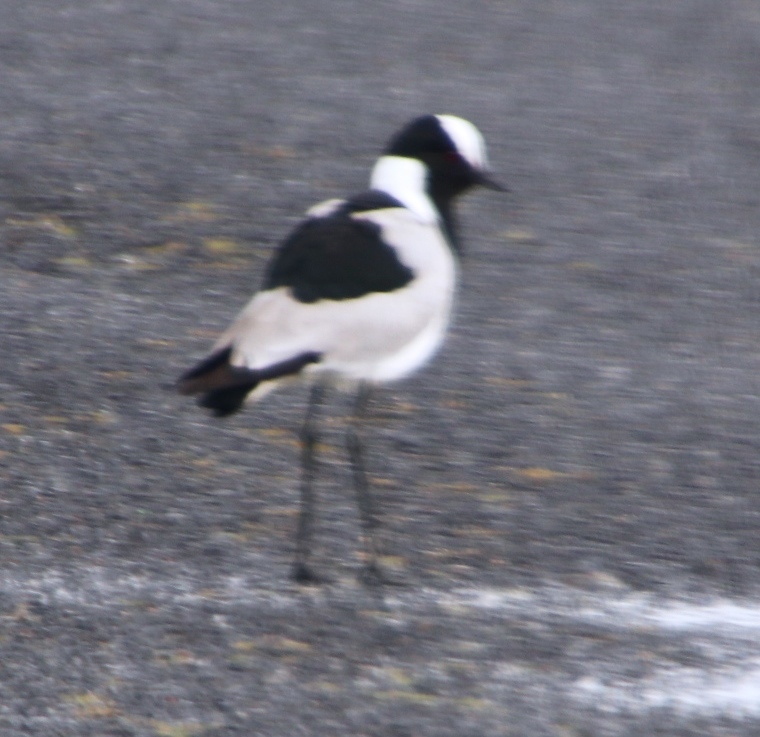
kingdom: Animalia
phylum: Chordata
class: Aves
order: Charadriiformes
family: Charadriidae
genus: Vanellus
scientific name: Vanellus armatus
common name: Blacksmith lapwing
